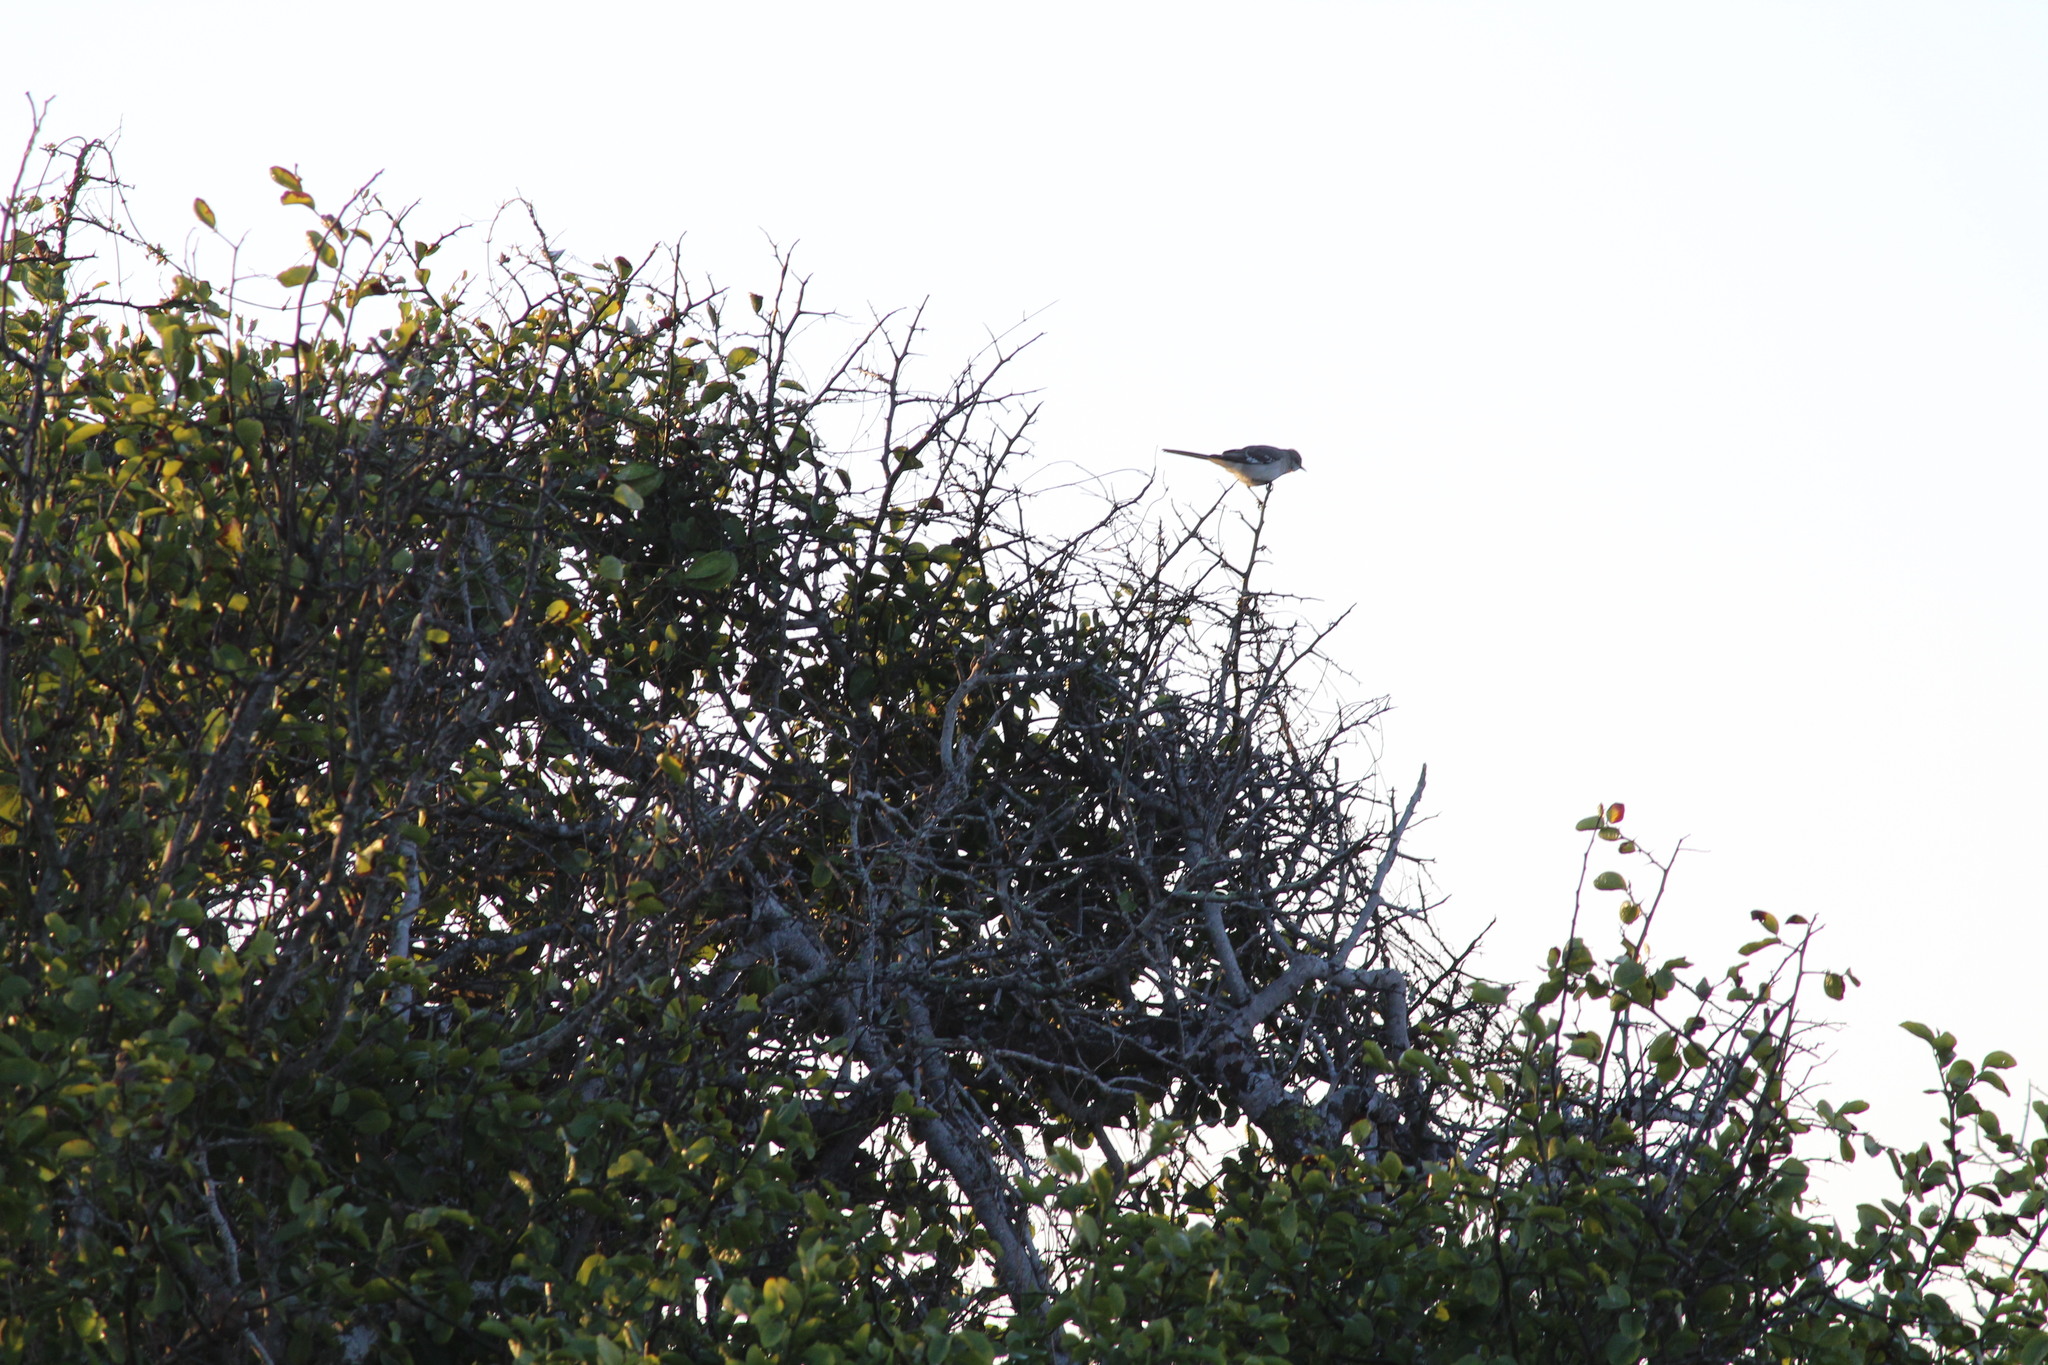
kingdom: Animalia
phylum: Chordata
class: Aves
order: Passeriformes
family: Mimidae
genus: Mimus
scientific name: Mimus polyglottos
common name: Northern mockingbird
